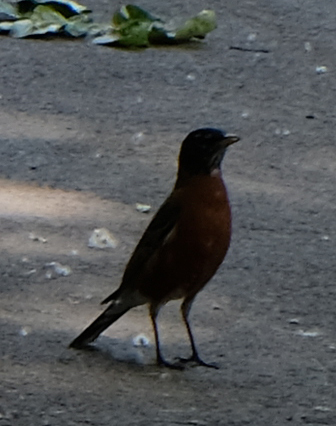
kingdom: Animalia
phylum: Chordata
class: Aves
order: Passeriformes
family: Turdidae
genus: Turdus
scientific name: Turdus migratorius
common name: American robin
